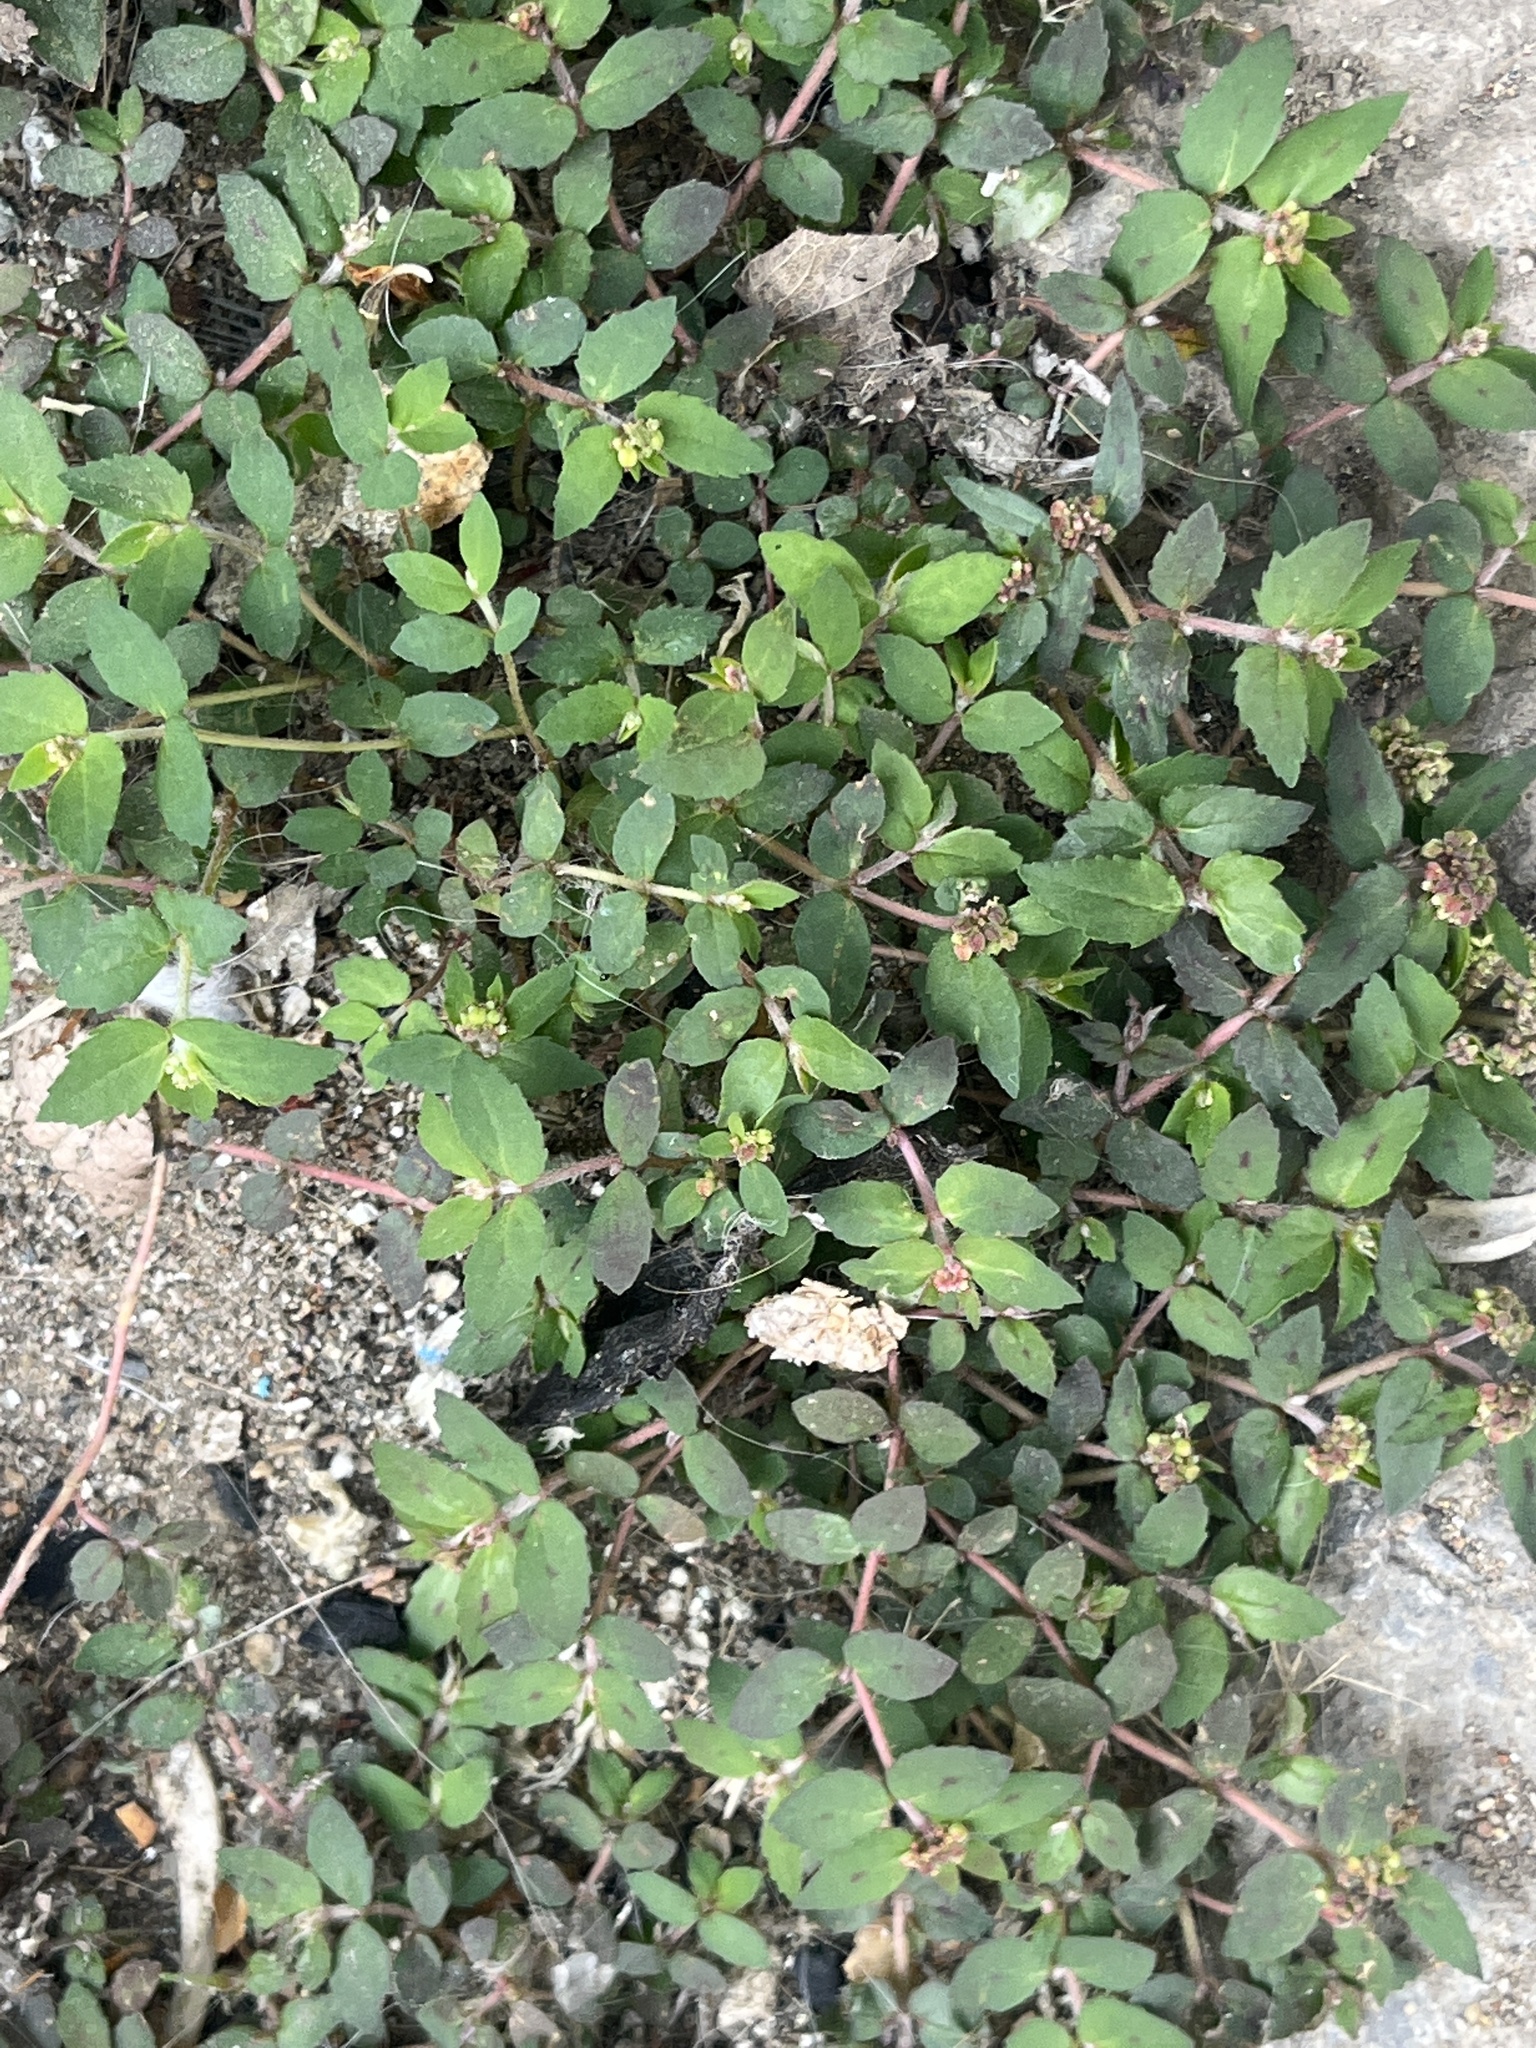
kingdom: Plantae
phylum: Tracheophyta
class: Magnoliopsida
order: Malpighiales
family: Euphorbiaceae
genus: Euphorbia
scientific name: Euphorbia ophthalmica
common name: Florida hammock sandmat
